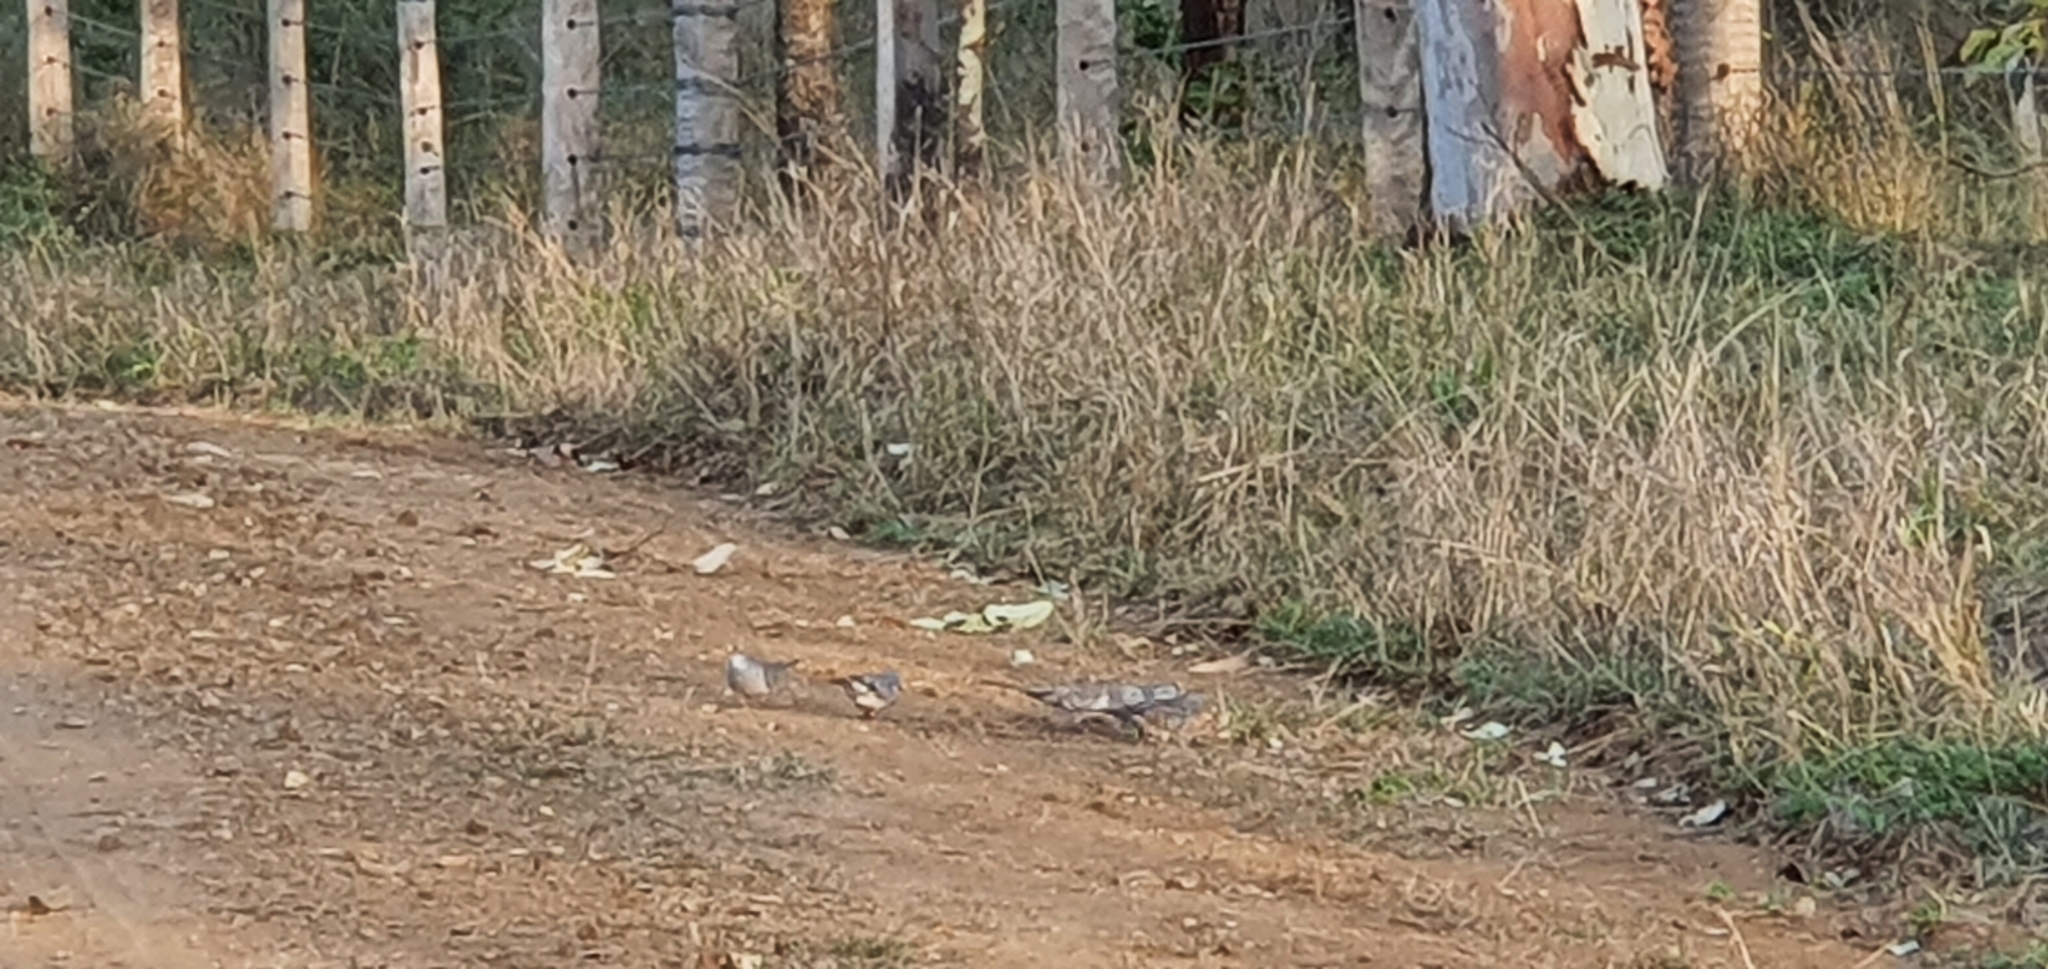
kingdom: Animalia
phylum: Chordata
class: Aves
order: Columbiformes
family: Columbidae
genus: Geopelia
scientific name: Geopelia placida
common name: Peaceful dove
